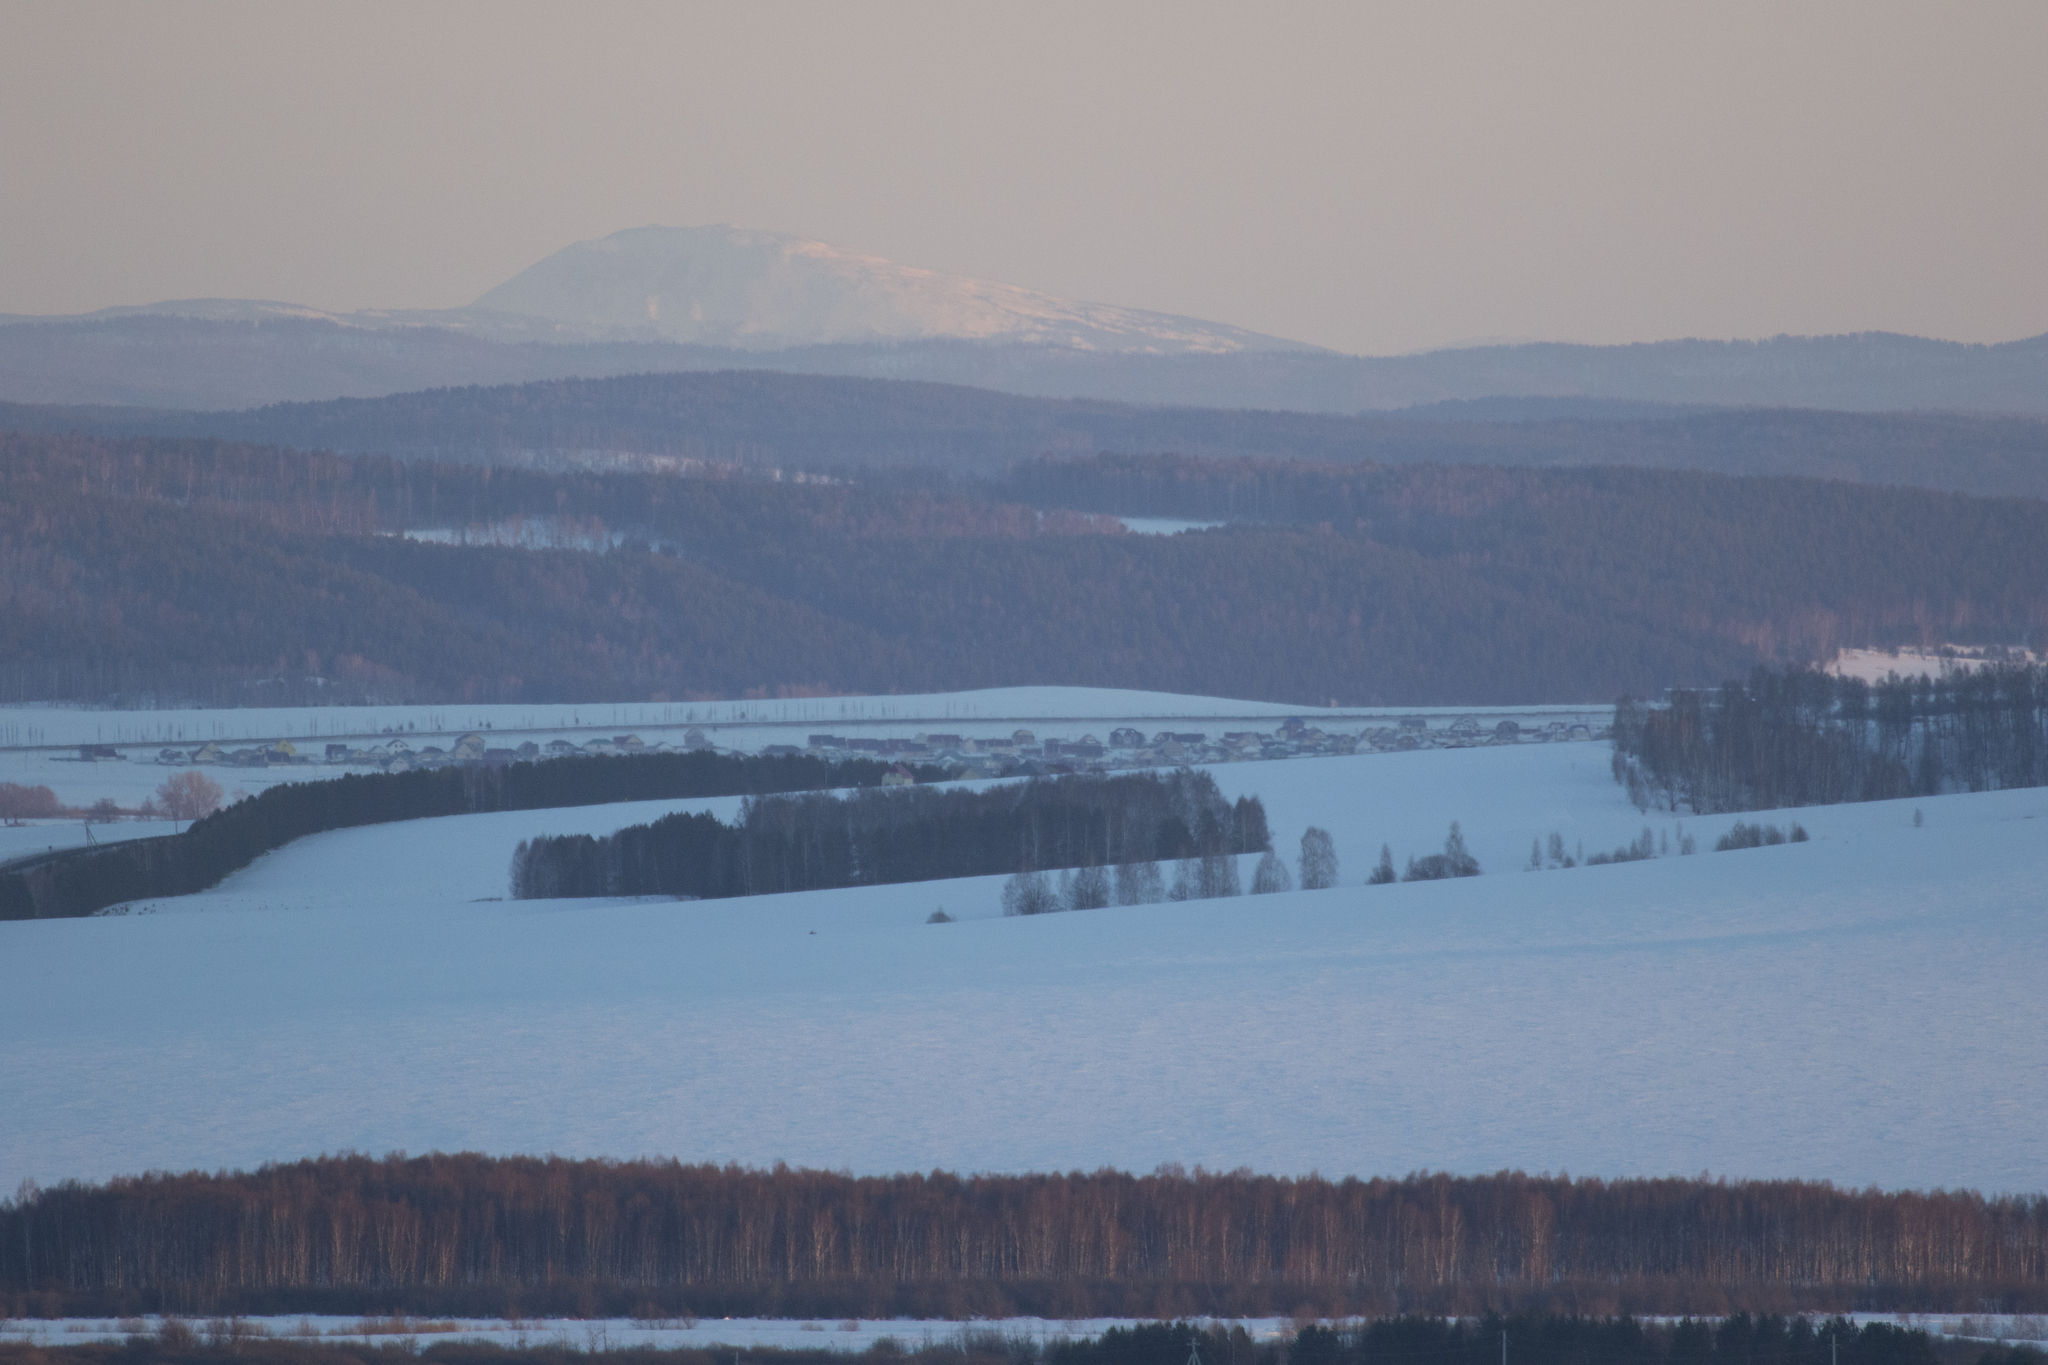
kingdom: Plantae
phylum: Tracheophyta
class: Pinopsida
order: Pinales
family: Pinaceae
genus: Pinus
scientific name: Pinus sylvestris
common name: Scots pine
